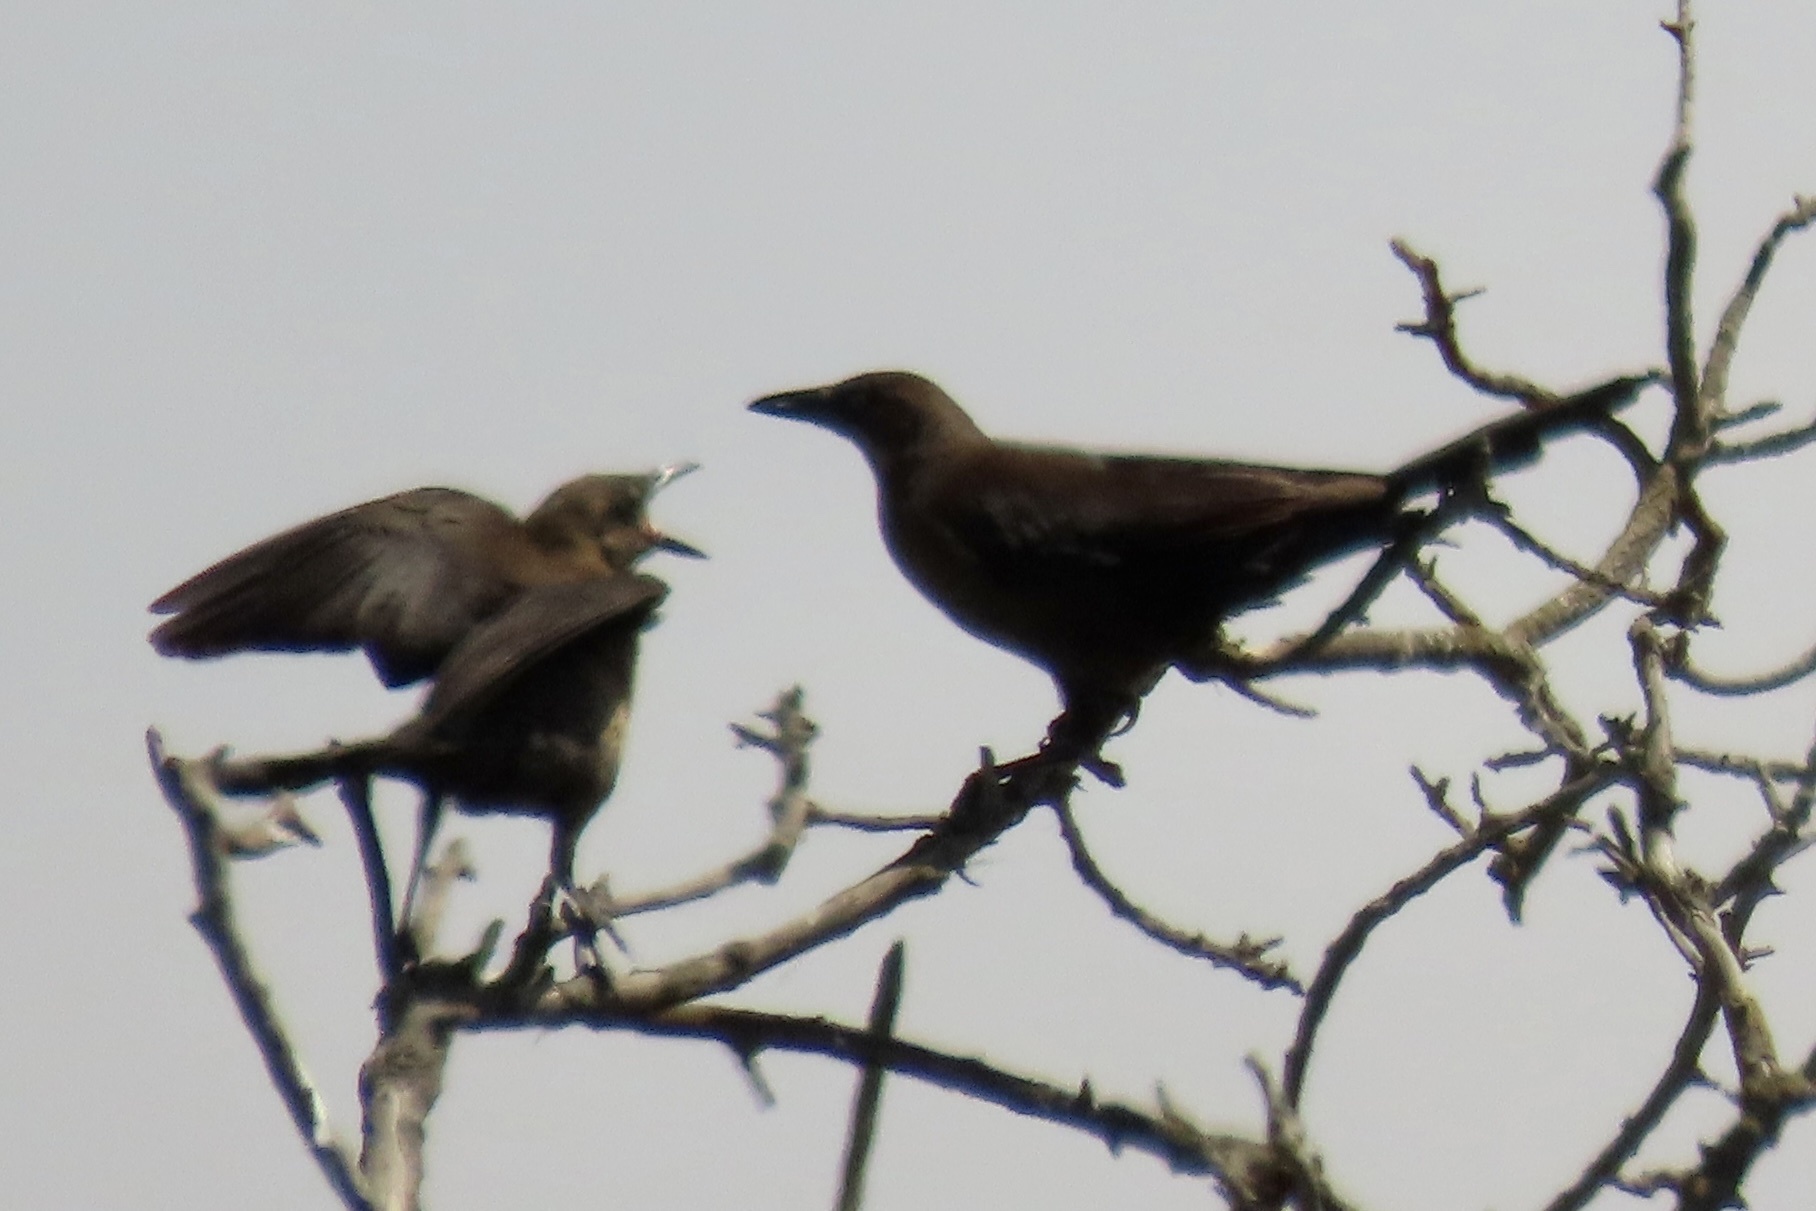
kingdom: Animalia
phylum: Chordata
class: Aves
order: Passeriformes
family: Icteridae
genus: Quiscalus
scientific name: Quiscalus mexicanus
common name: Great-tailed grackle
